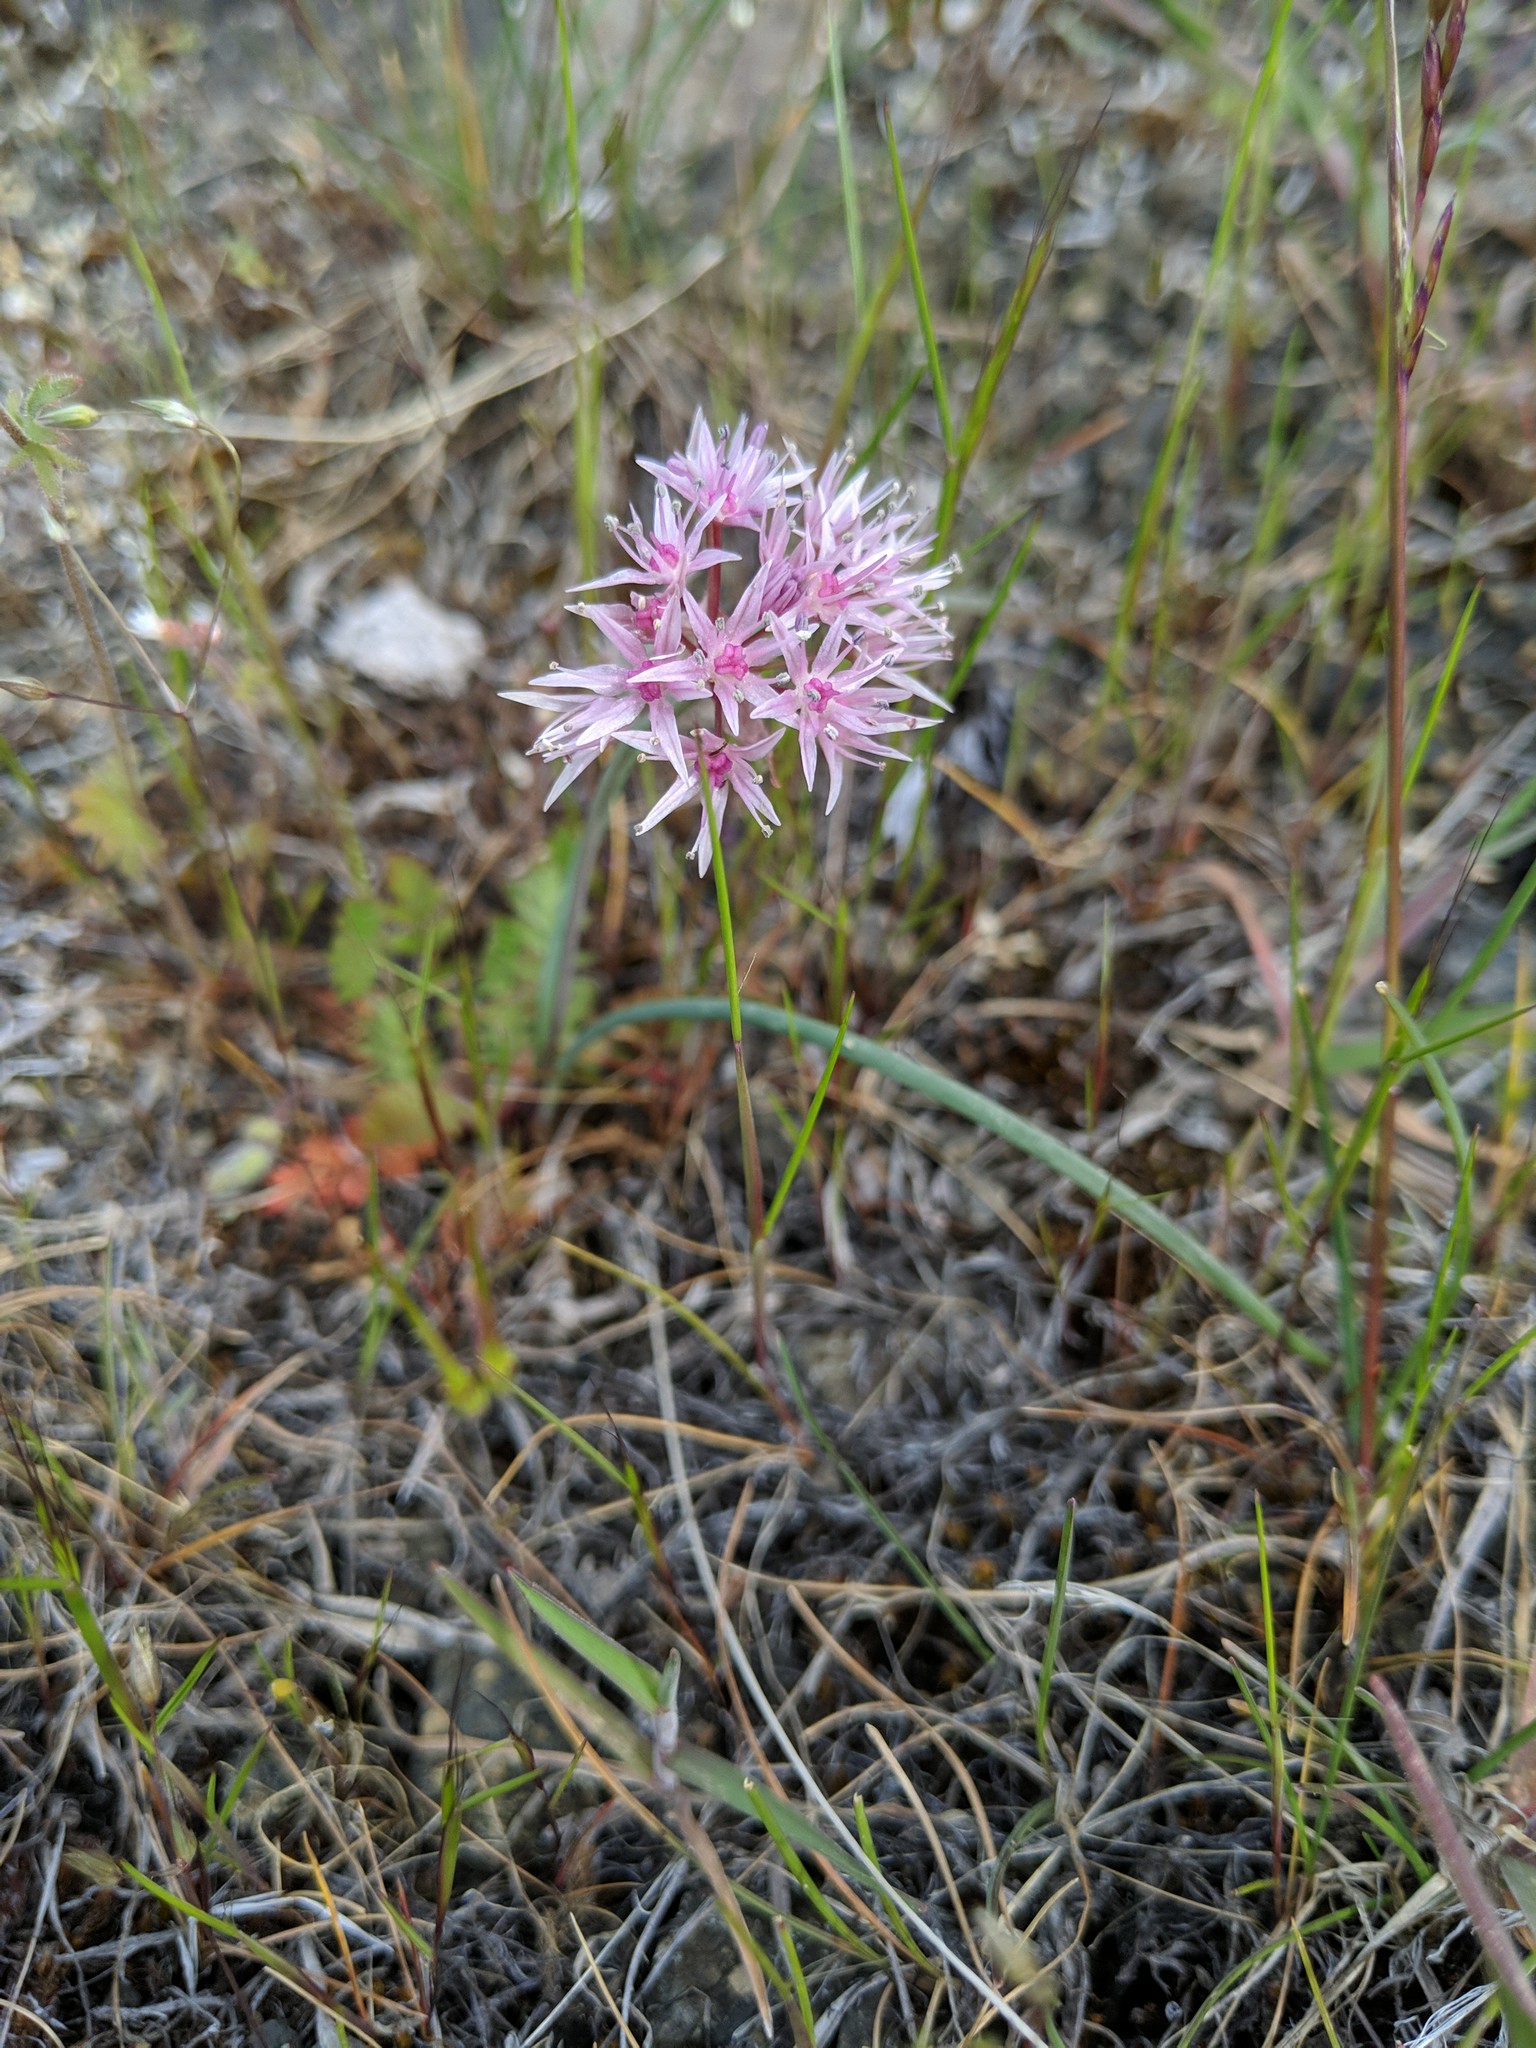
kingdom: Plantae
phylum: Tracheophyta
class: Liliopsida
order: Asparagales
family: Amaryllidaceae
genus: Allium
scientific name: Allium macrum
